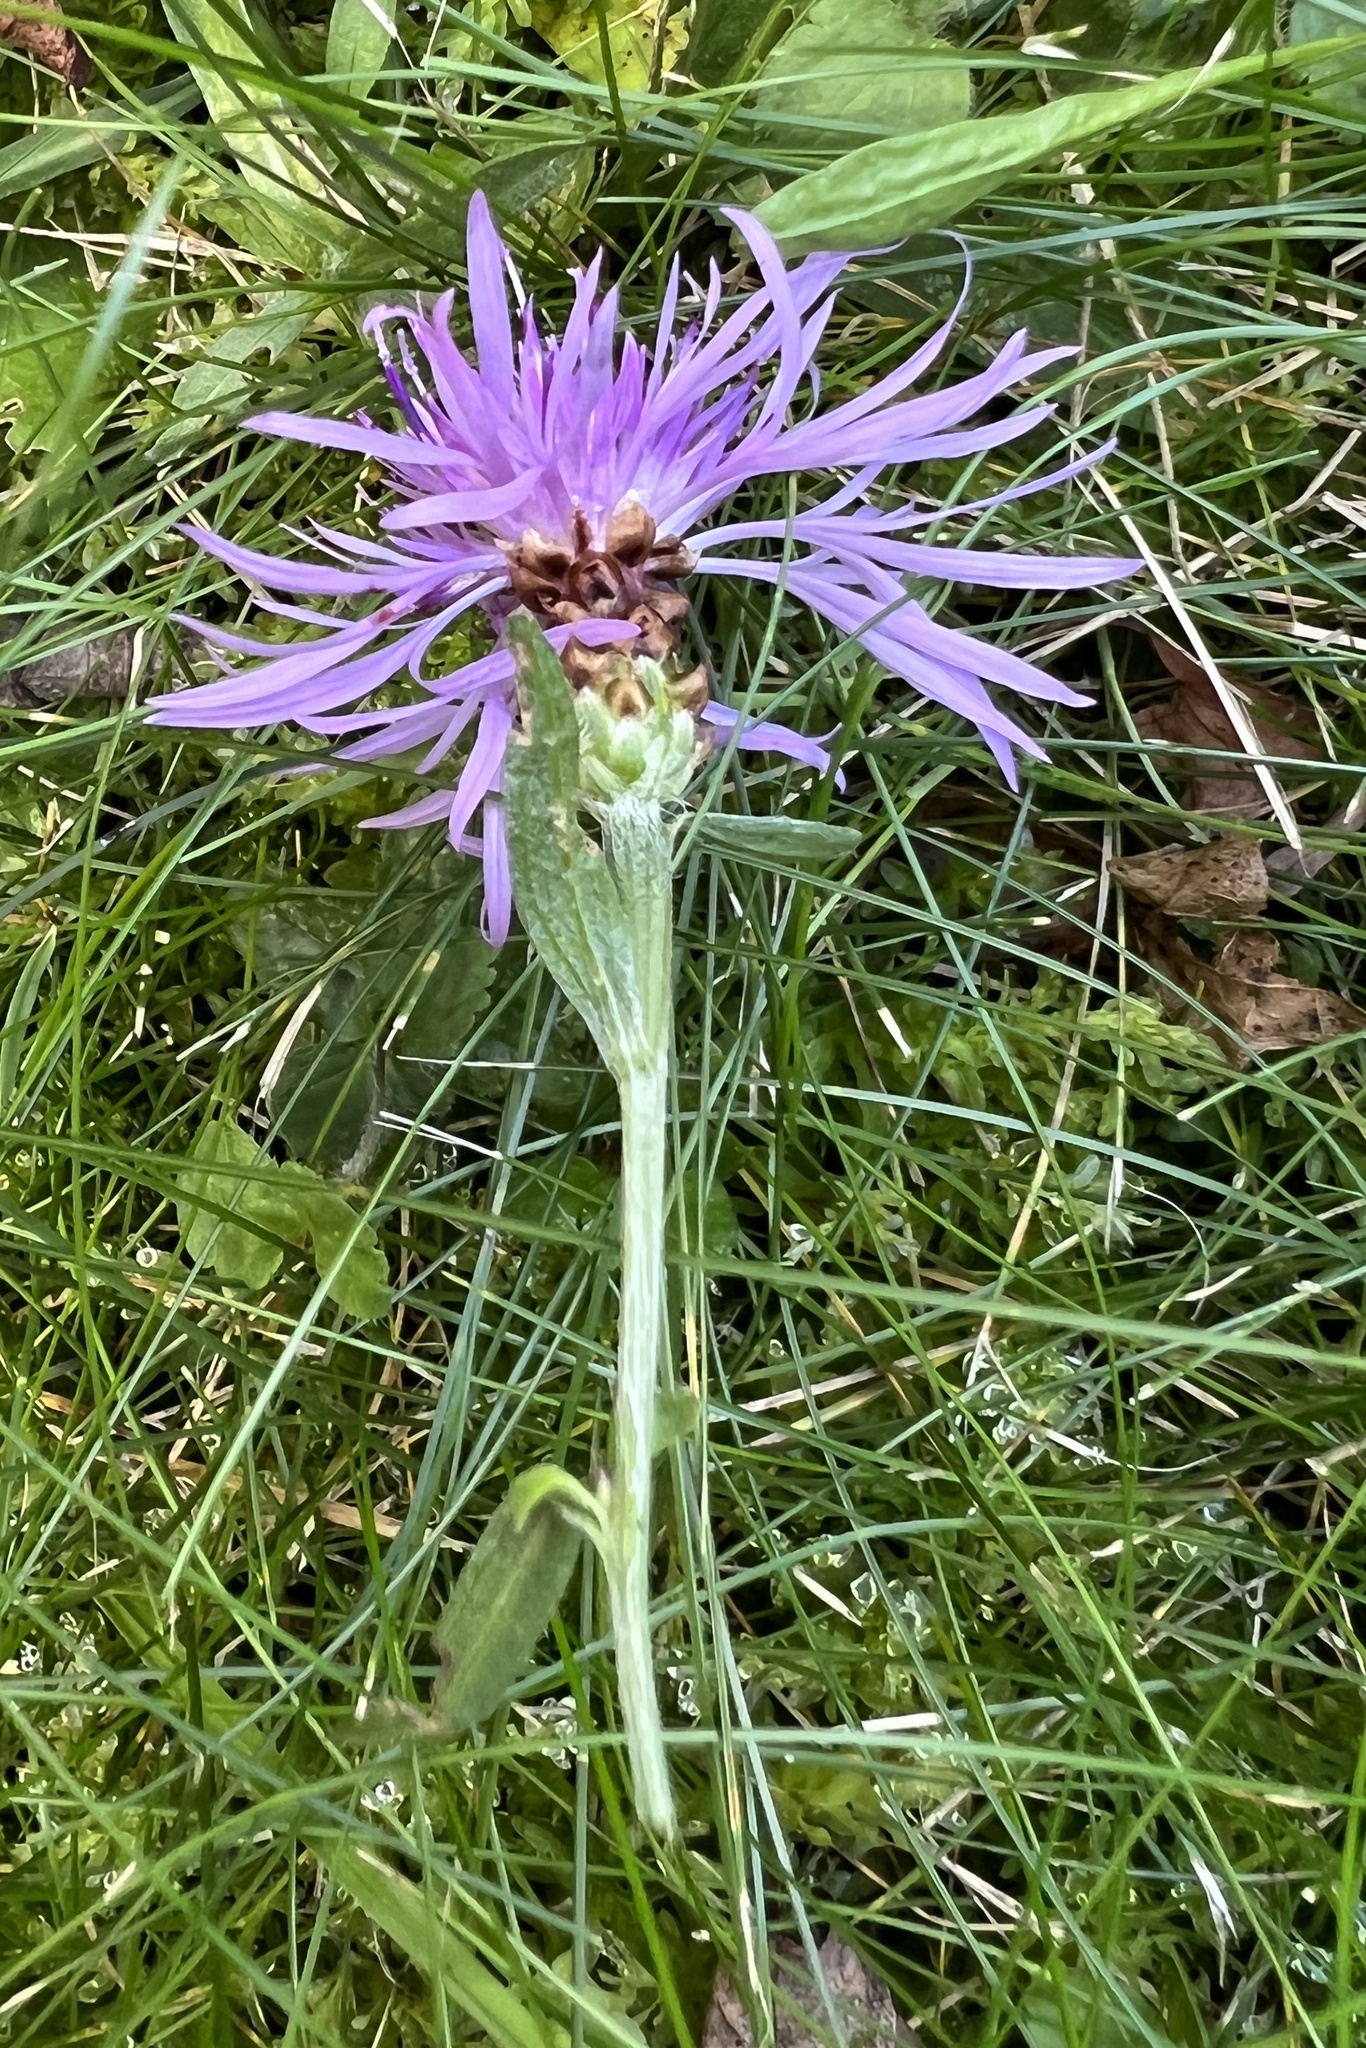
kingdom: Plantae
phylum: Tracheophyta
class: Magnoliopsida
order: Asterales
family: Asteraceae
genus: Centaurea
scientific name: Centaurea jacea
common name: Brown knapweed
